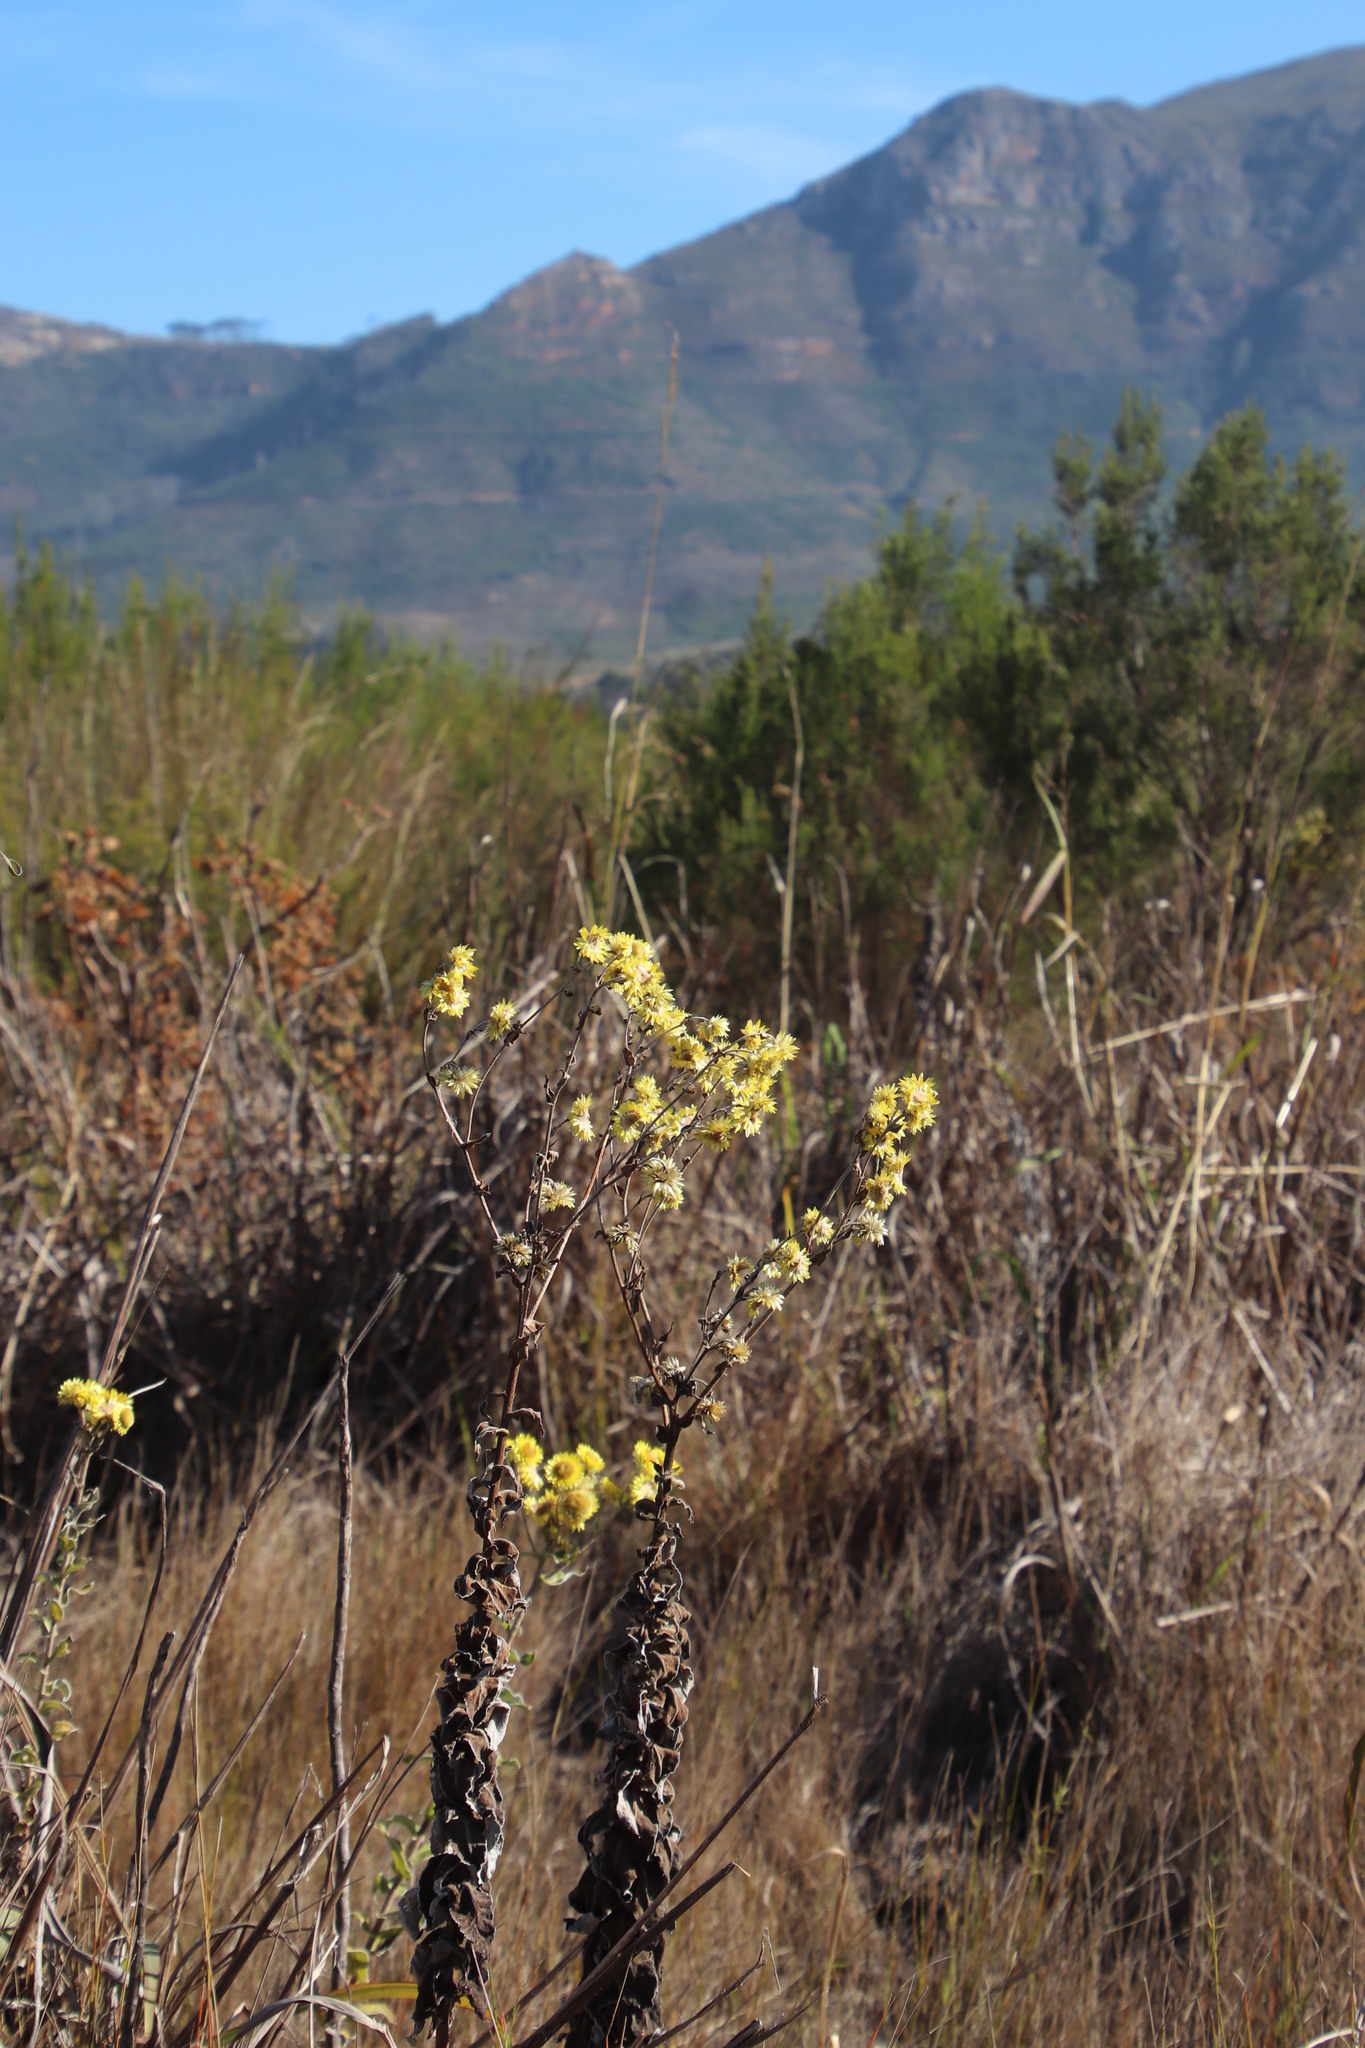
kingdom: Plantae
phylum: Tracheophyta
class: Magnoliopsida
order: Asterales
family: Asteraceae
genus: Helichrysum
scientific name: Helichrysum foetidum
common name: Stinking everlasting
